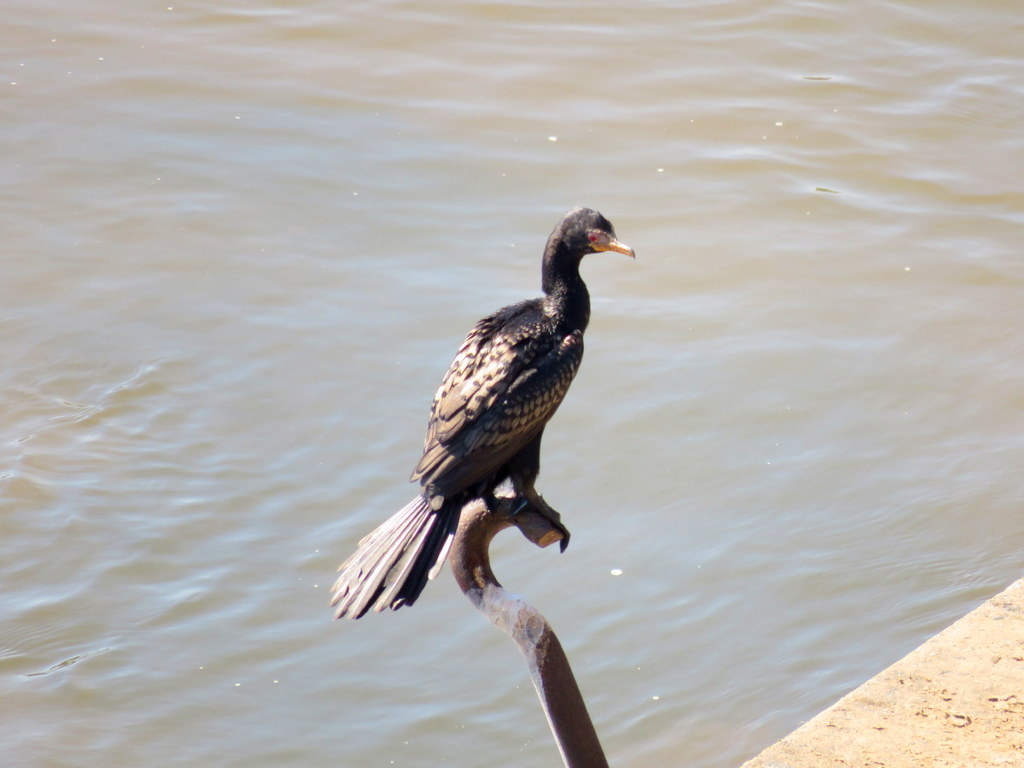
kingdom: Animalia
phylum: Chordata
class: Aves
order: Suliformes
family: Phalacrocoracidae
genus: Microcarbo
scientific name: Microcarbo africanus
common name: Long-tailed cormorant
